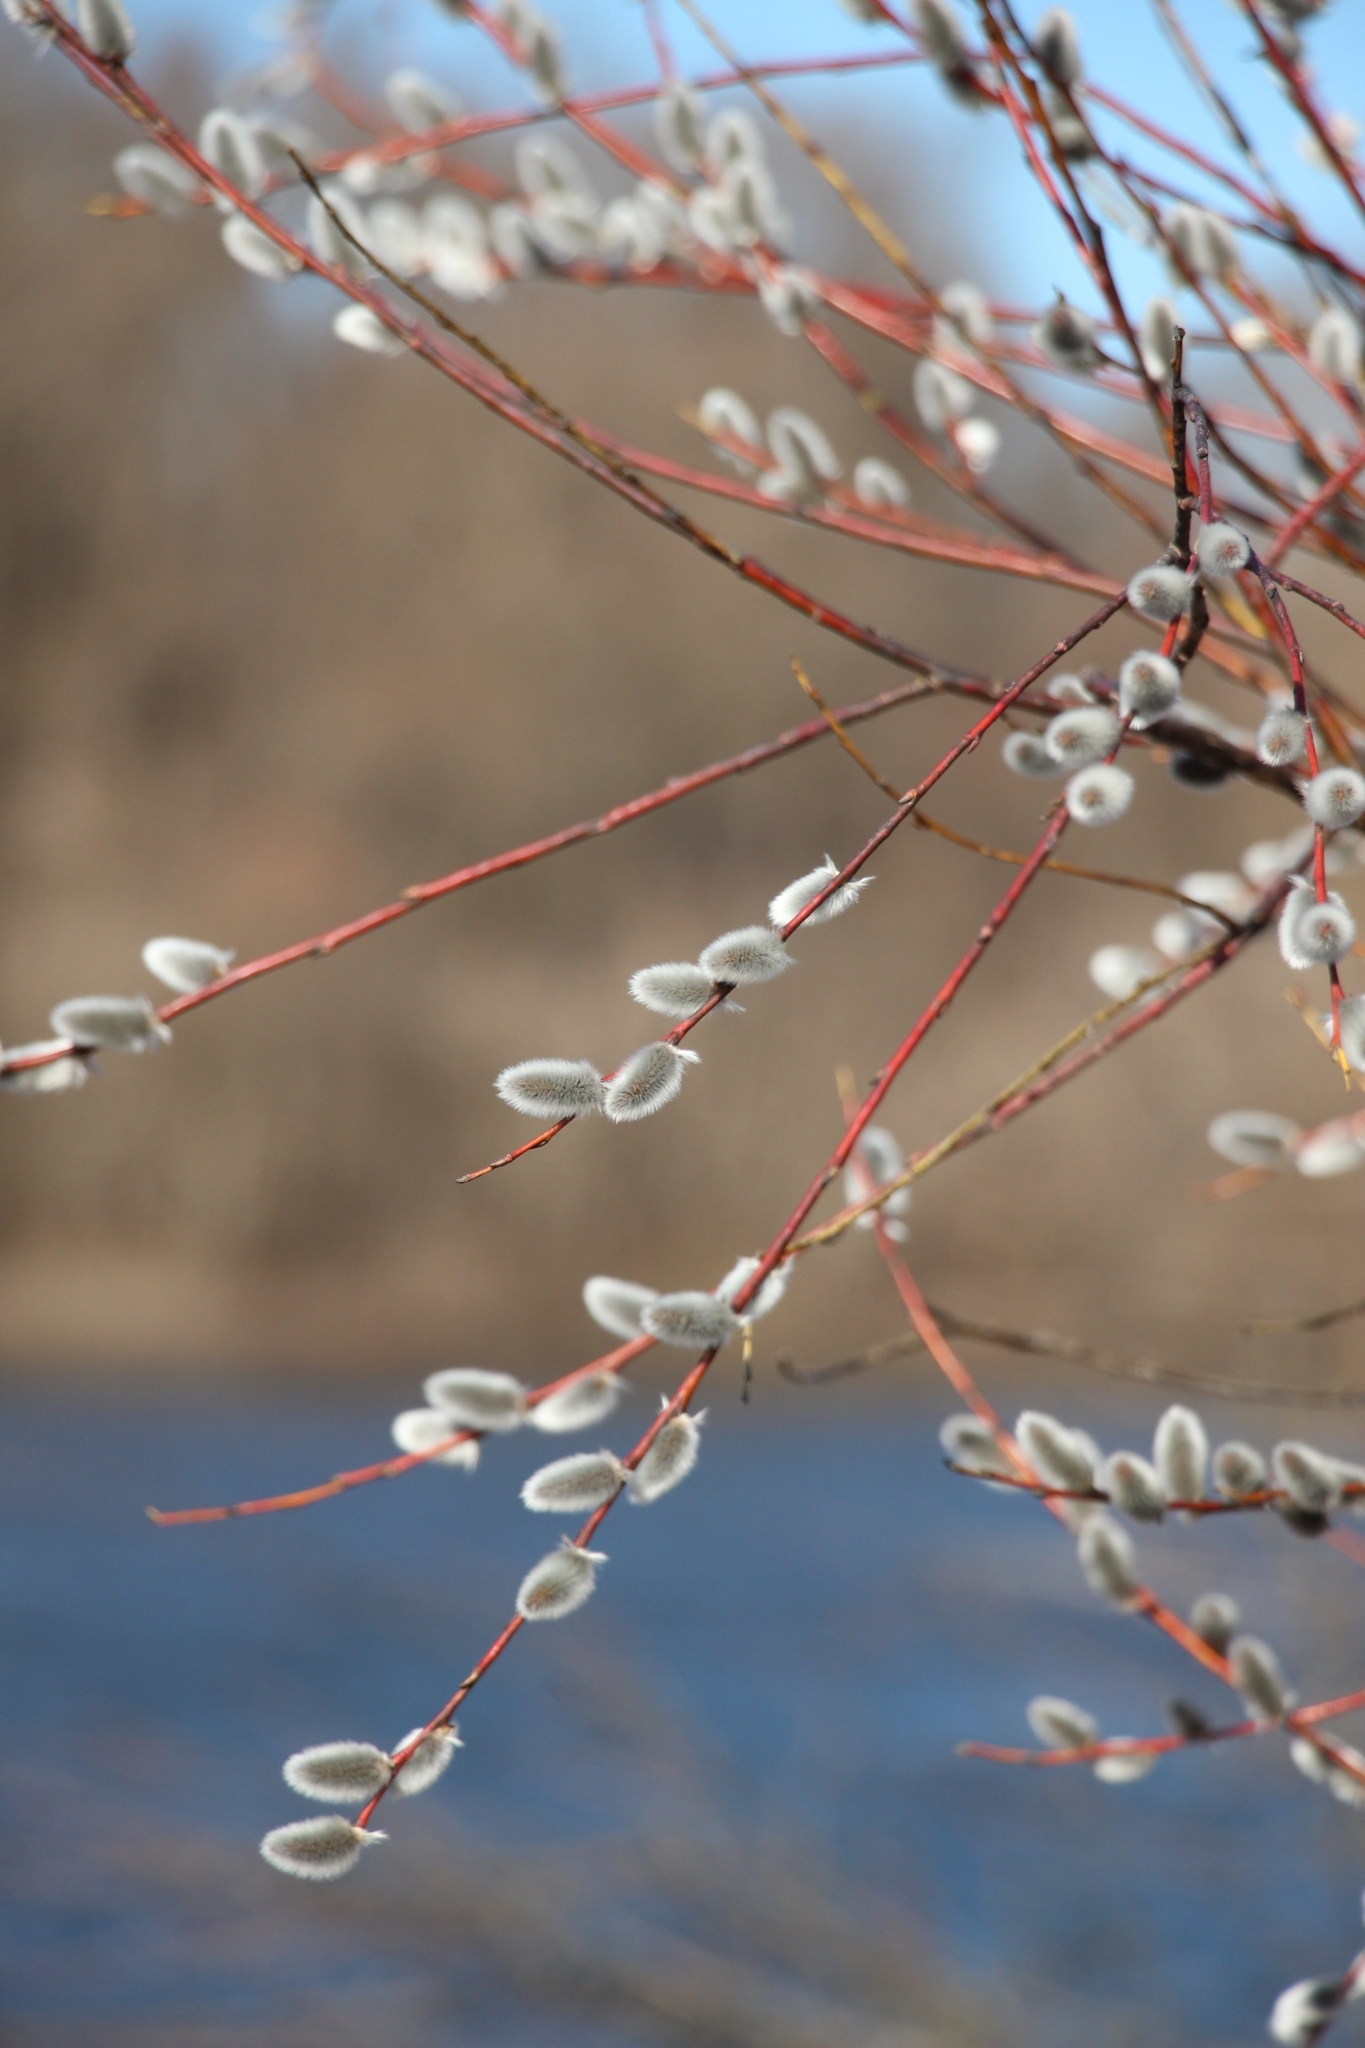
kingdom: Plantae
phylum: Tracheophyta
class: Magnoliopsida
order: Malpighiales
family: Salicaceae
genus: Salix
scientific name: Salix acutifolia
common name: Siberian violet-willow
